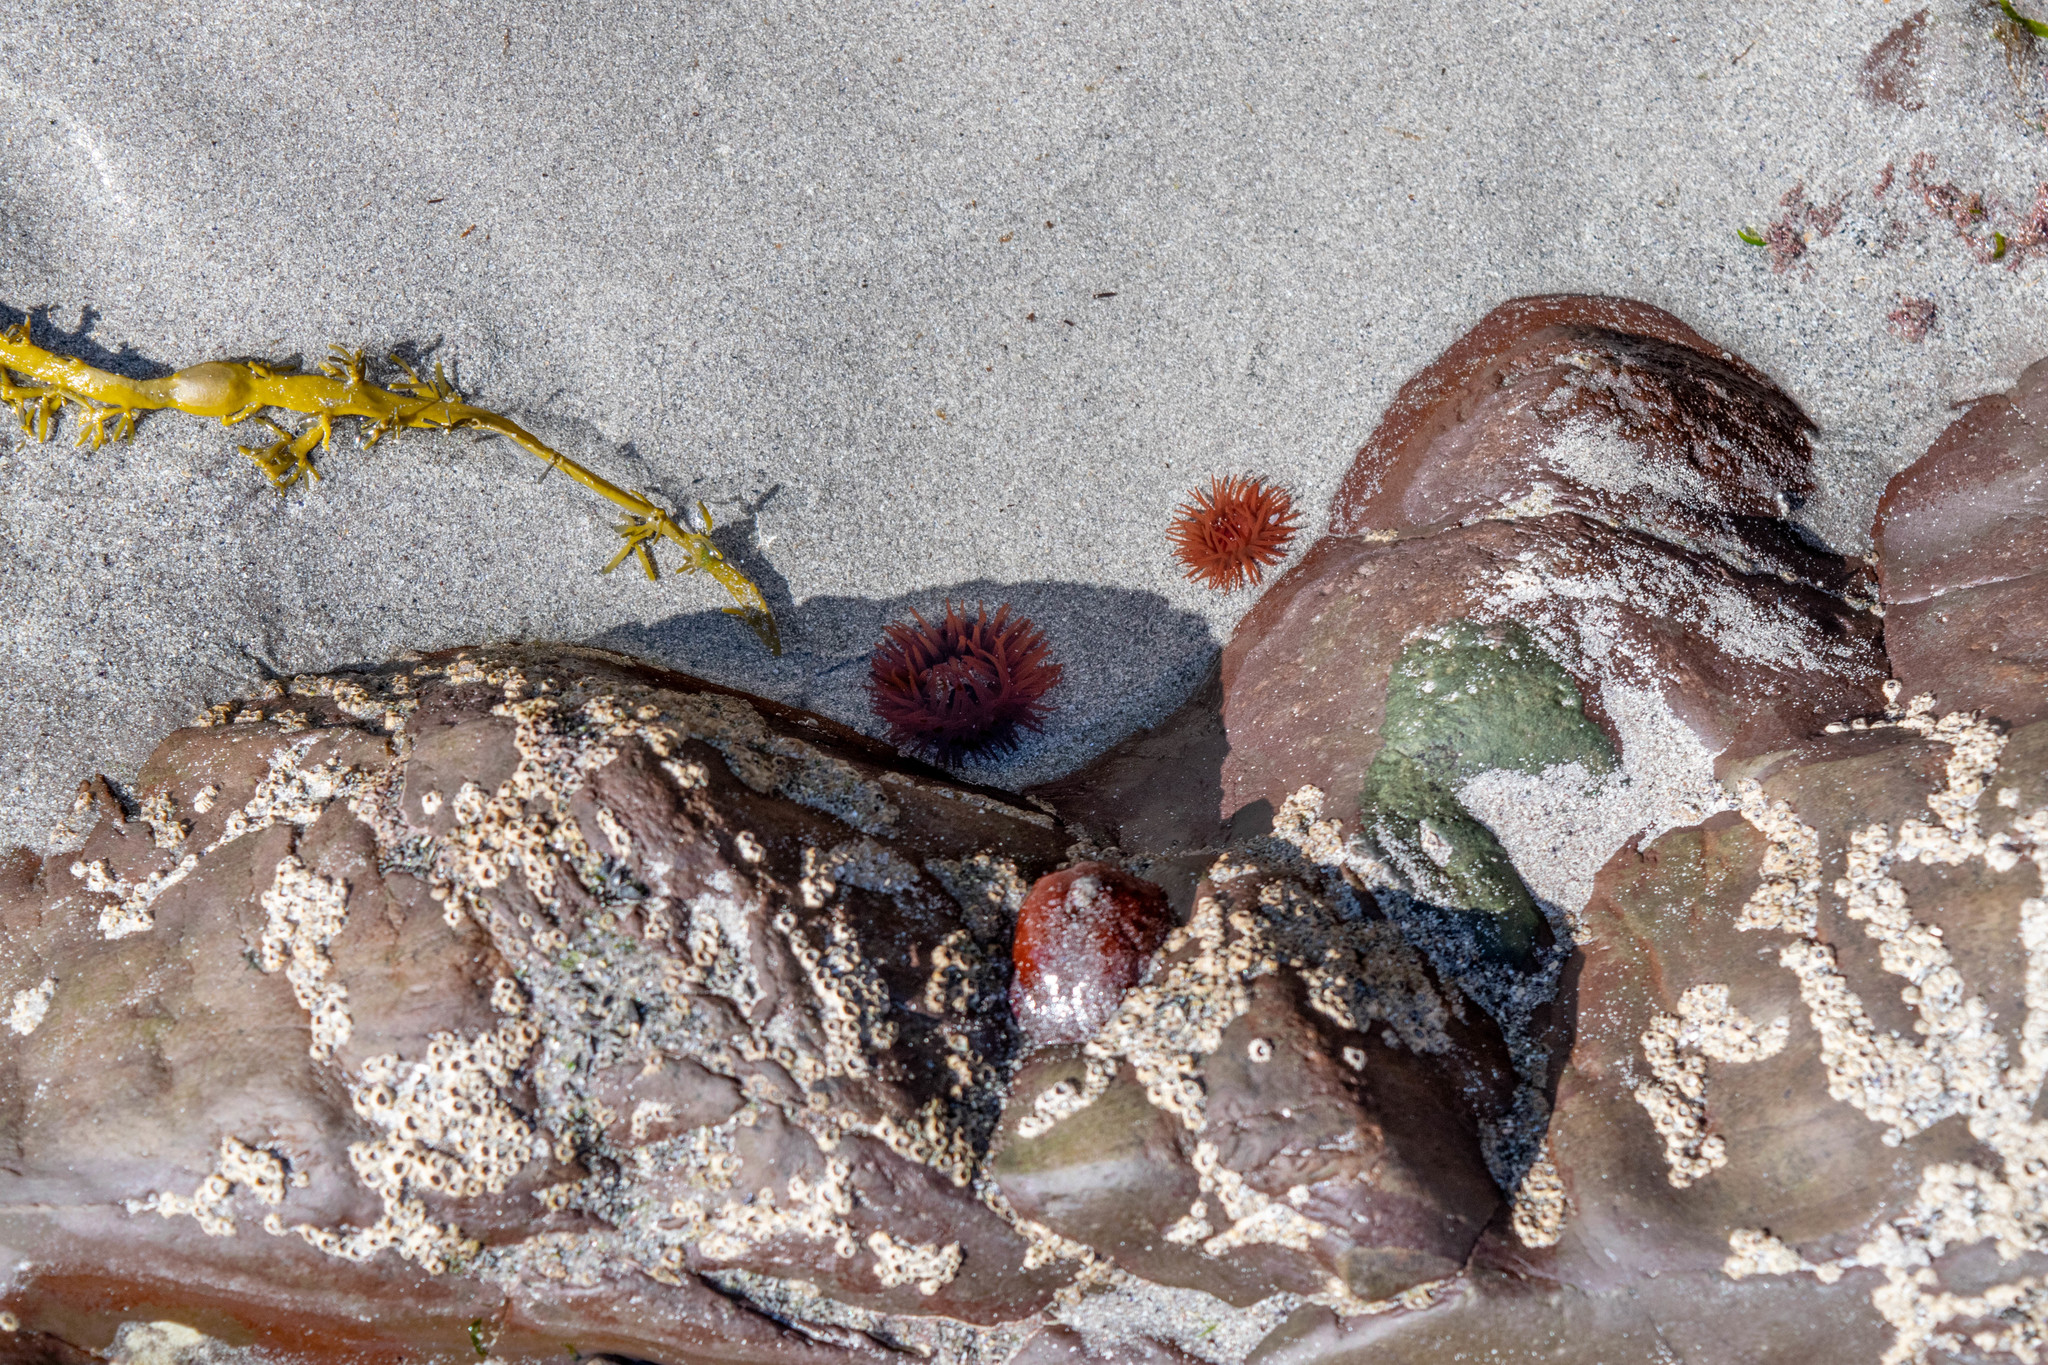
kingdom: Animalia
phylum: Cnidaria
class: Anthozoa
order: Actiniaria
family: Actiniidae
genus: Actinia
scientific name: Actinia equina
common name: Beadlet anemone
